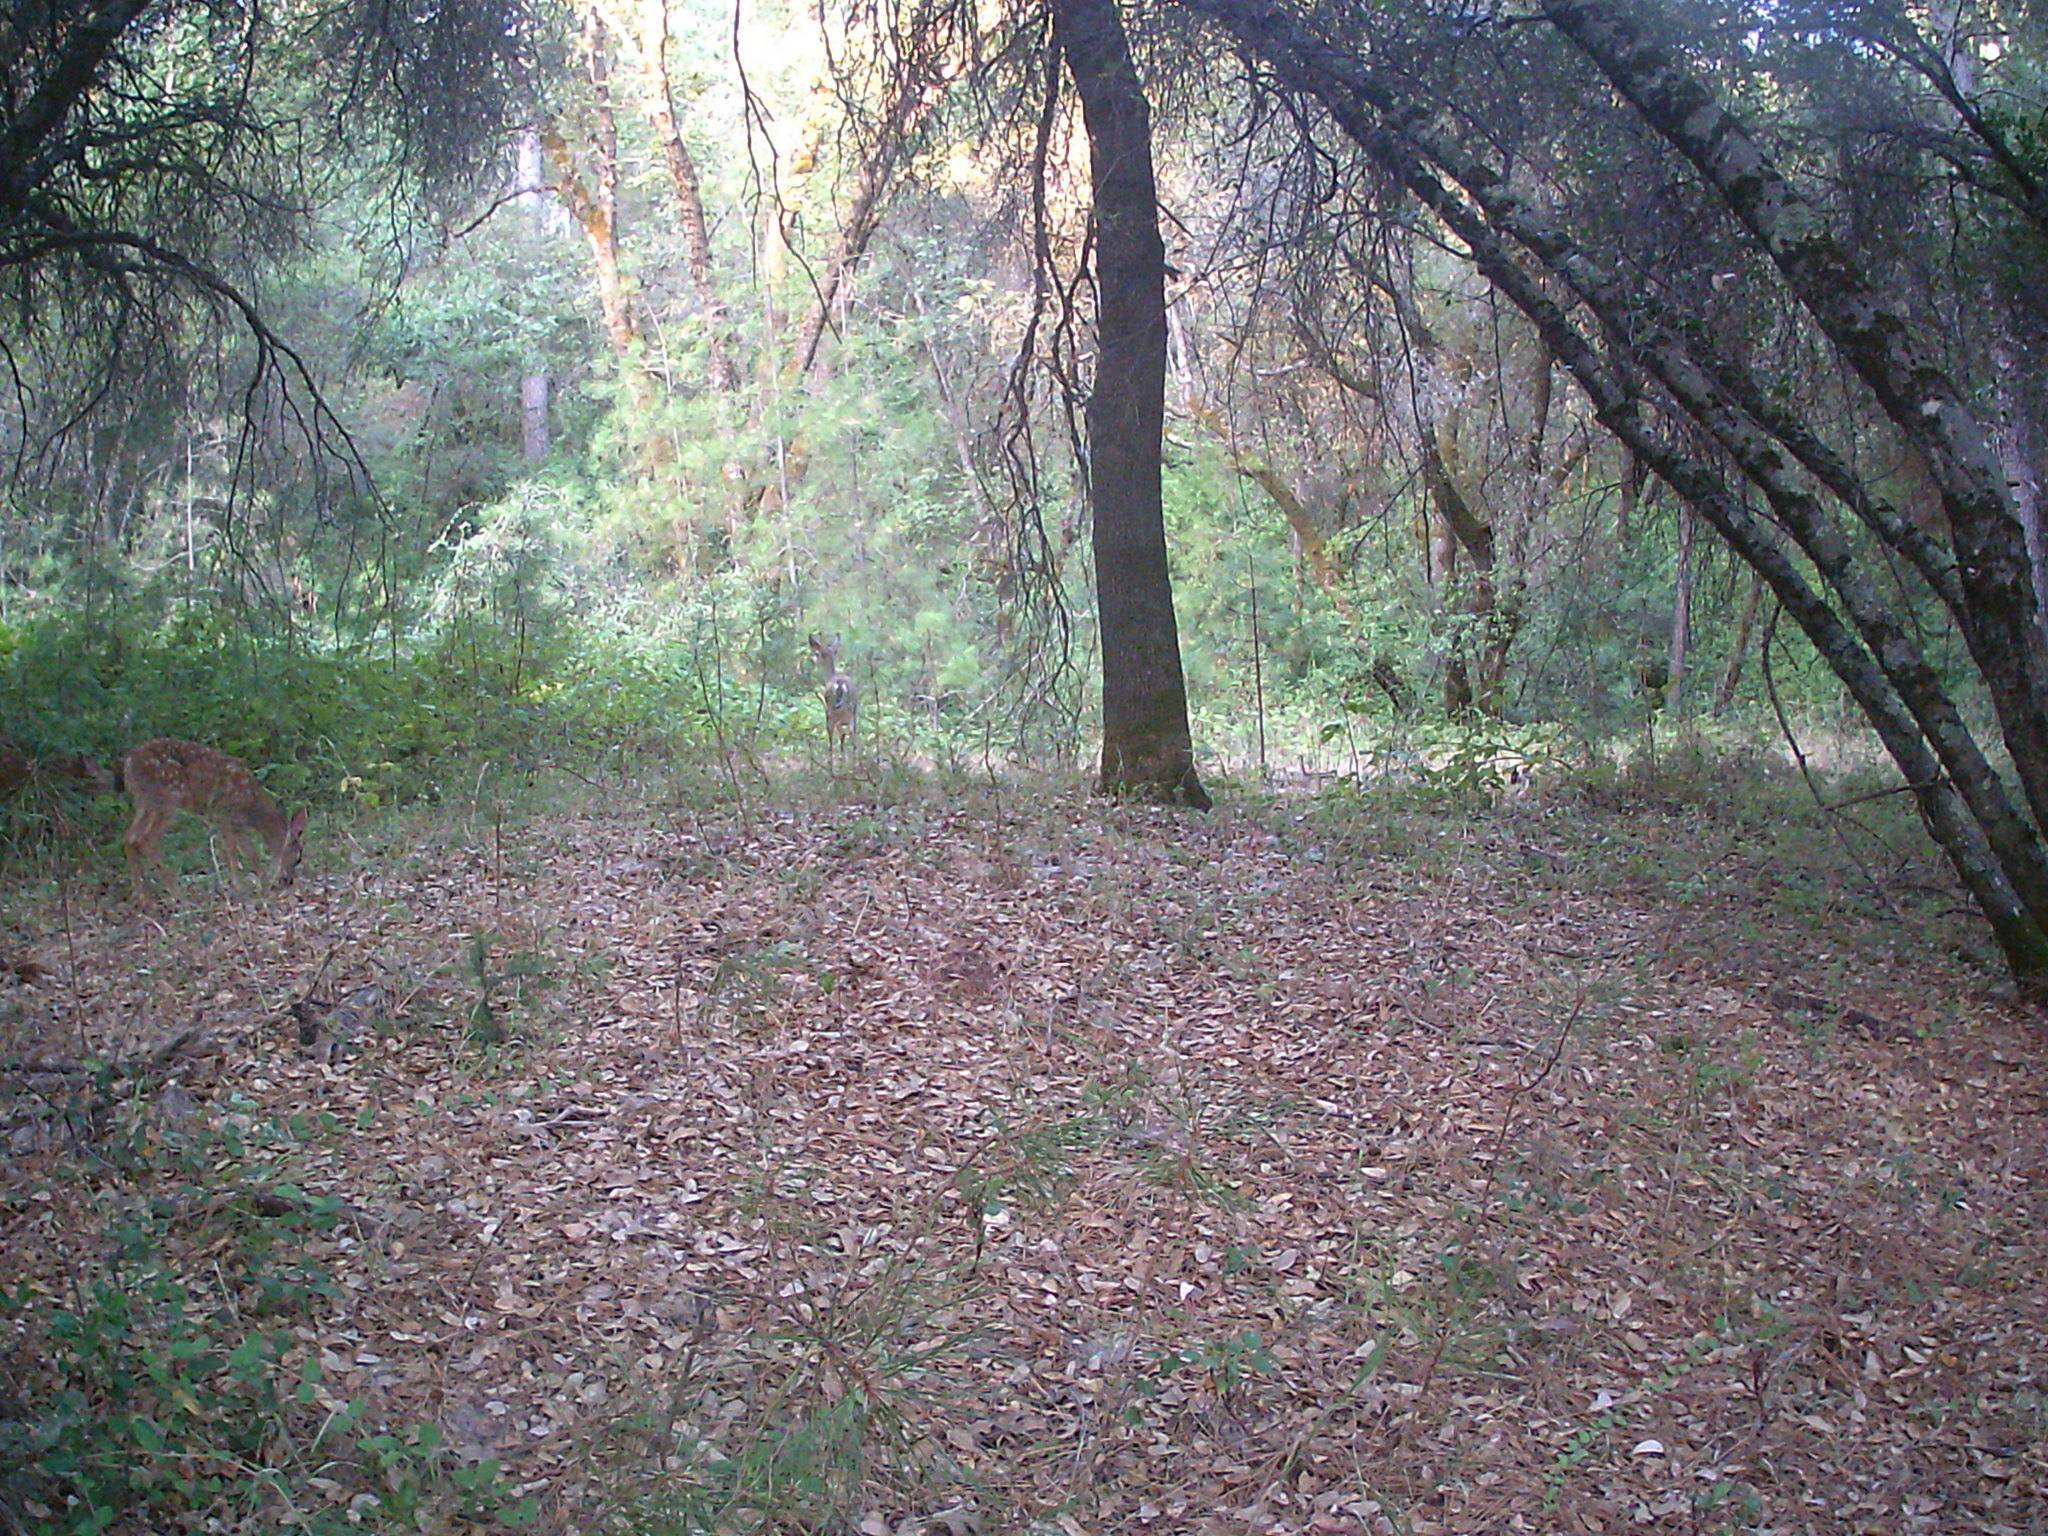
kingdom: Animalia
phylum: Chordata
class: Mammalia
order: Artiodactyla
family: Cervidae
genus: Odocoileus
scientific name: Odocoileus hemionus
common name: Mule deer
